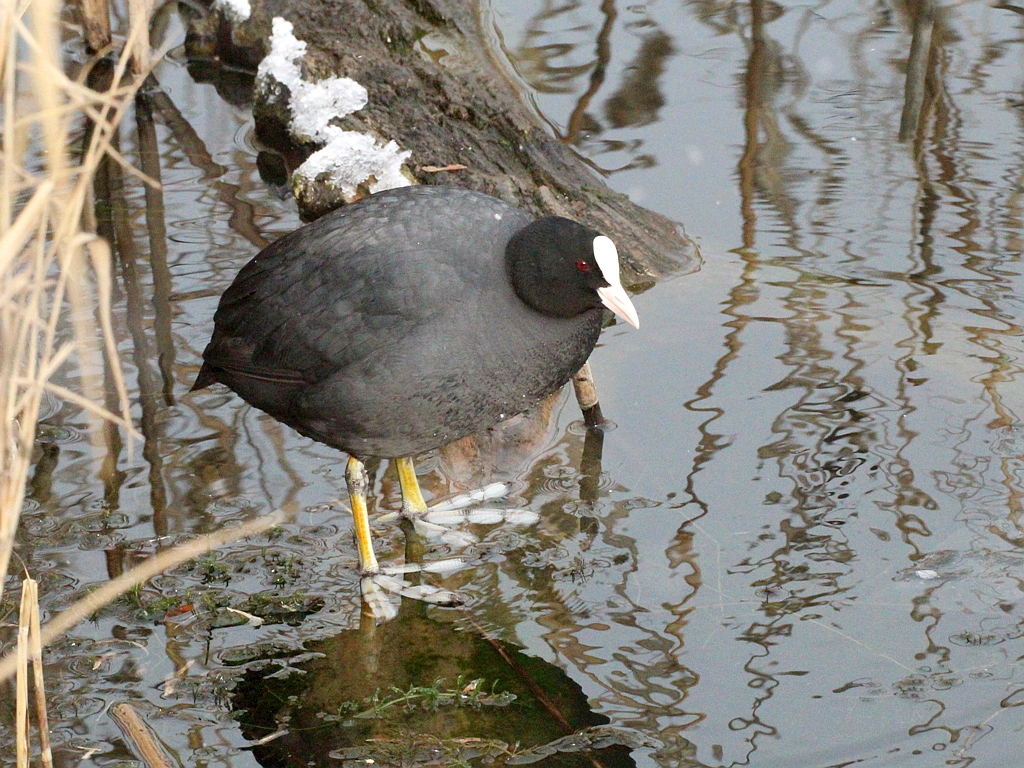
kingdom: Animalia
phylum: Chordata
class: Aves
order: Gruiformes
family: Rallidae
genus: Fulica
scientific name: Fulica atra
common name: Eurasian coot
